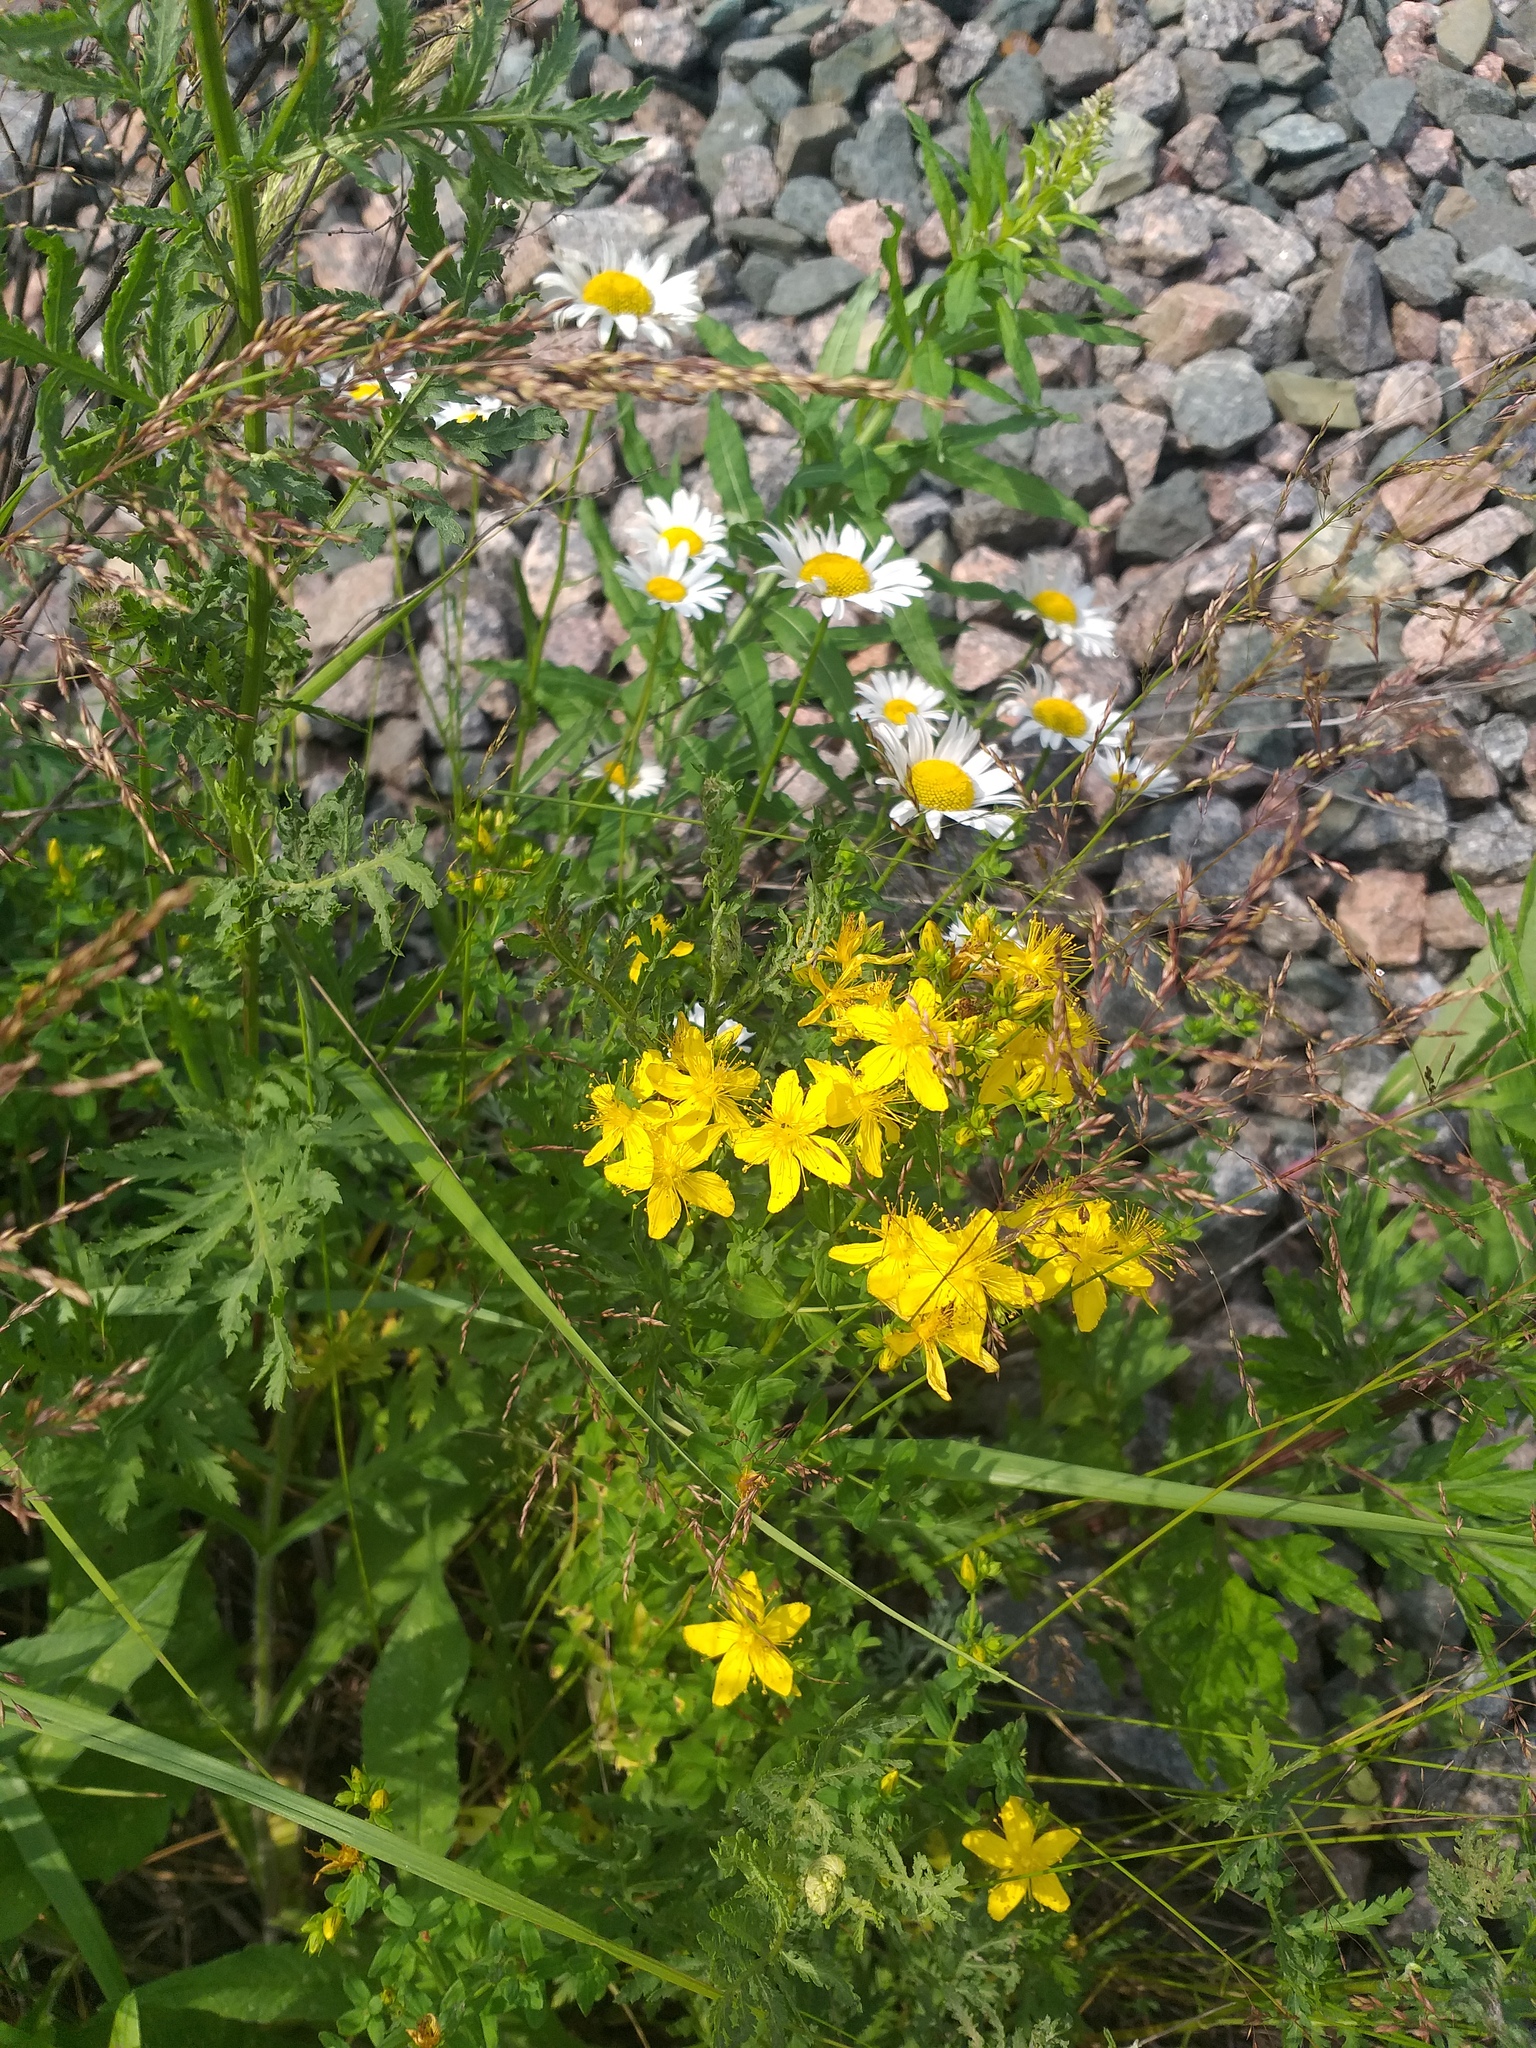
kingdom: Plantae
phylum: Tracheophyta
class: Magnoliopsida
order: Malpighiales
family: Hypericaceae
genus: Hypericum
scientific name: Hypericum perforatum
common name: Common st. johnswort
